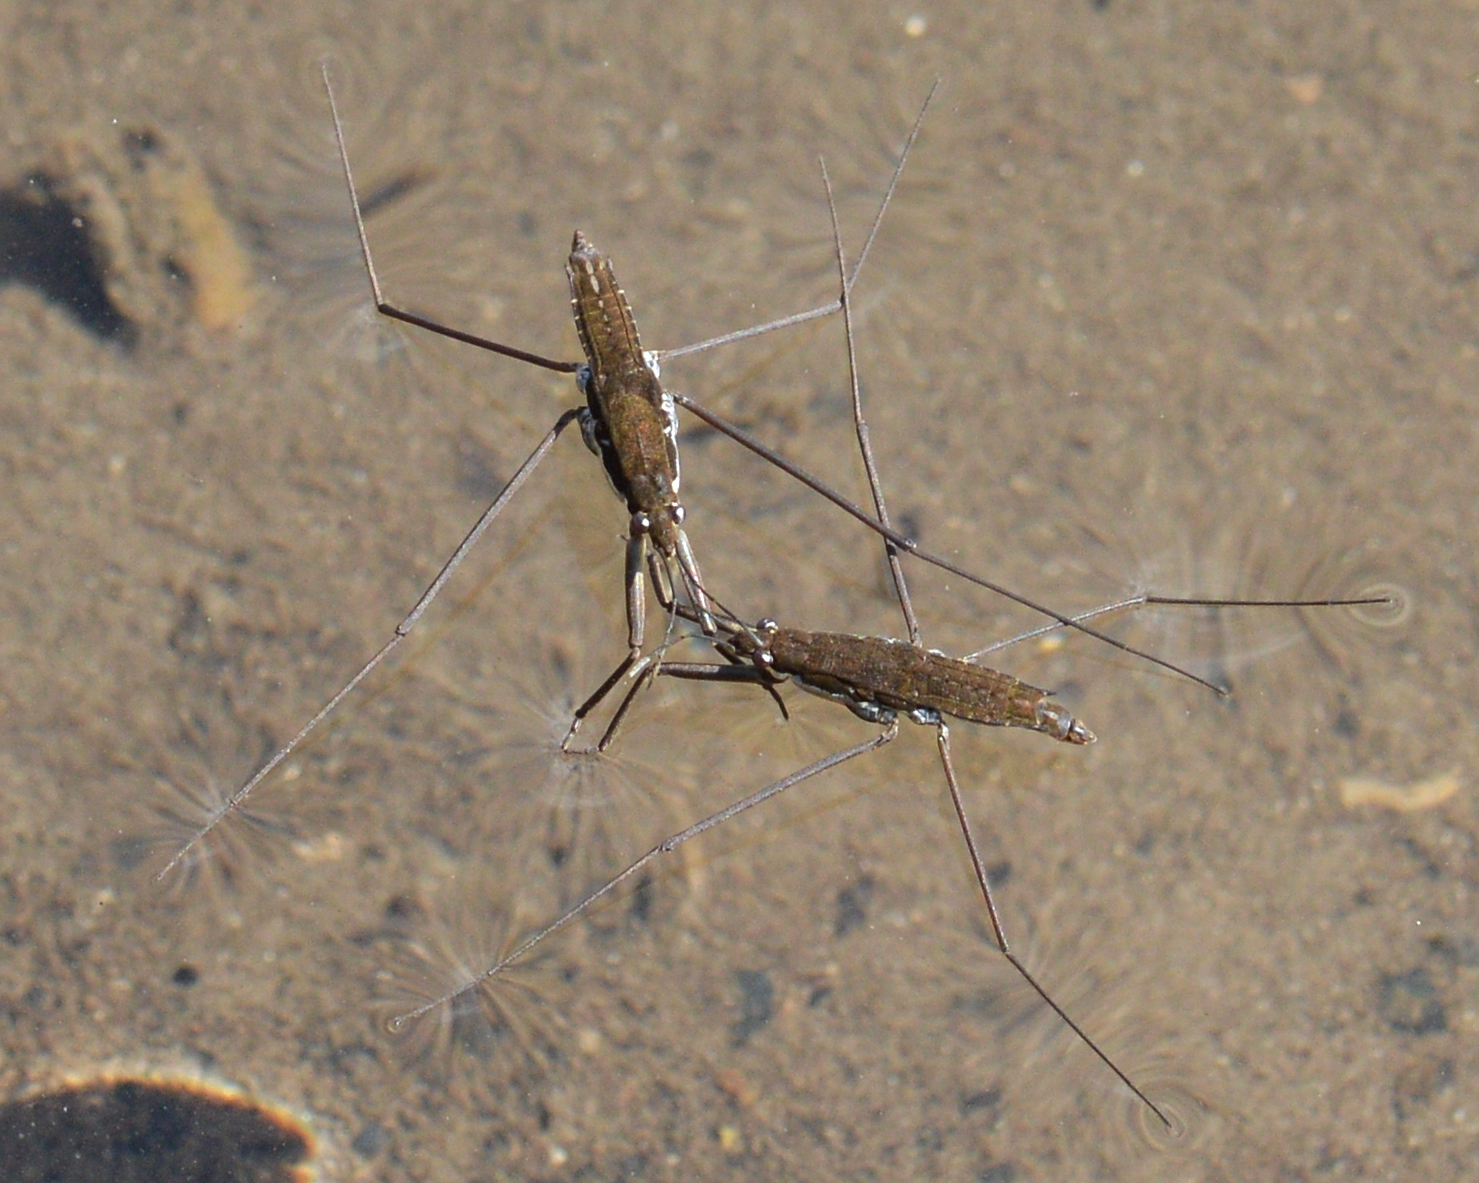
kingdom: Animalia
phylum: Arthropoda
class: Insecta
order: Hemiptera
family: Gerridae
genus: Aquarius
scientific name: Aquarius remigis
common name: Common water strider
